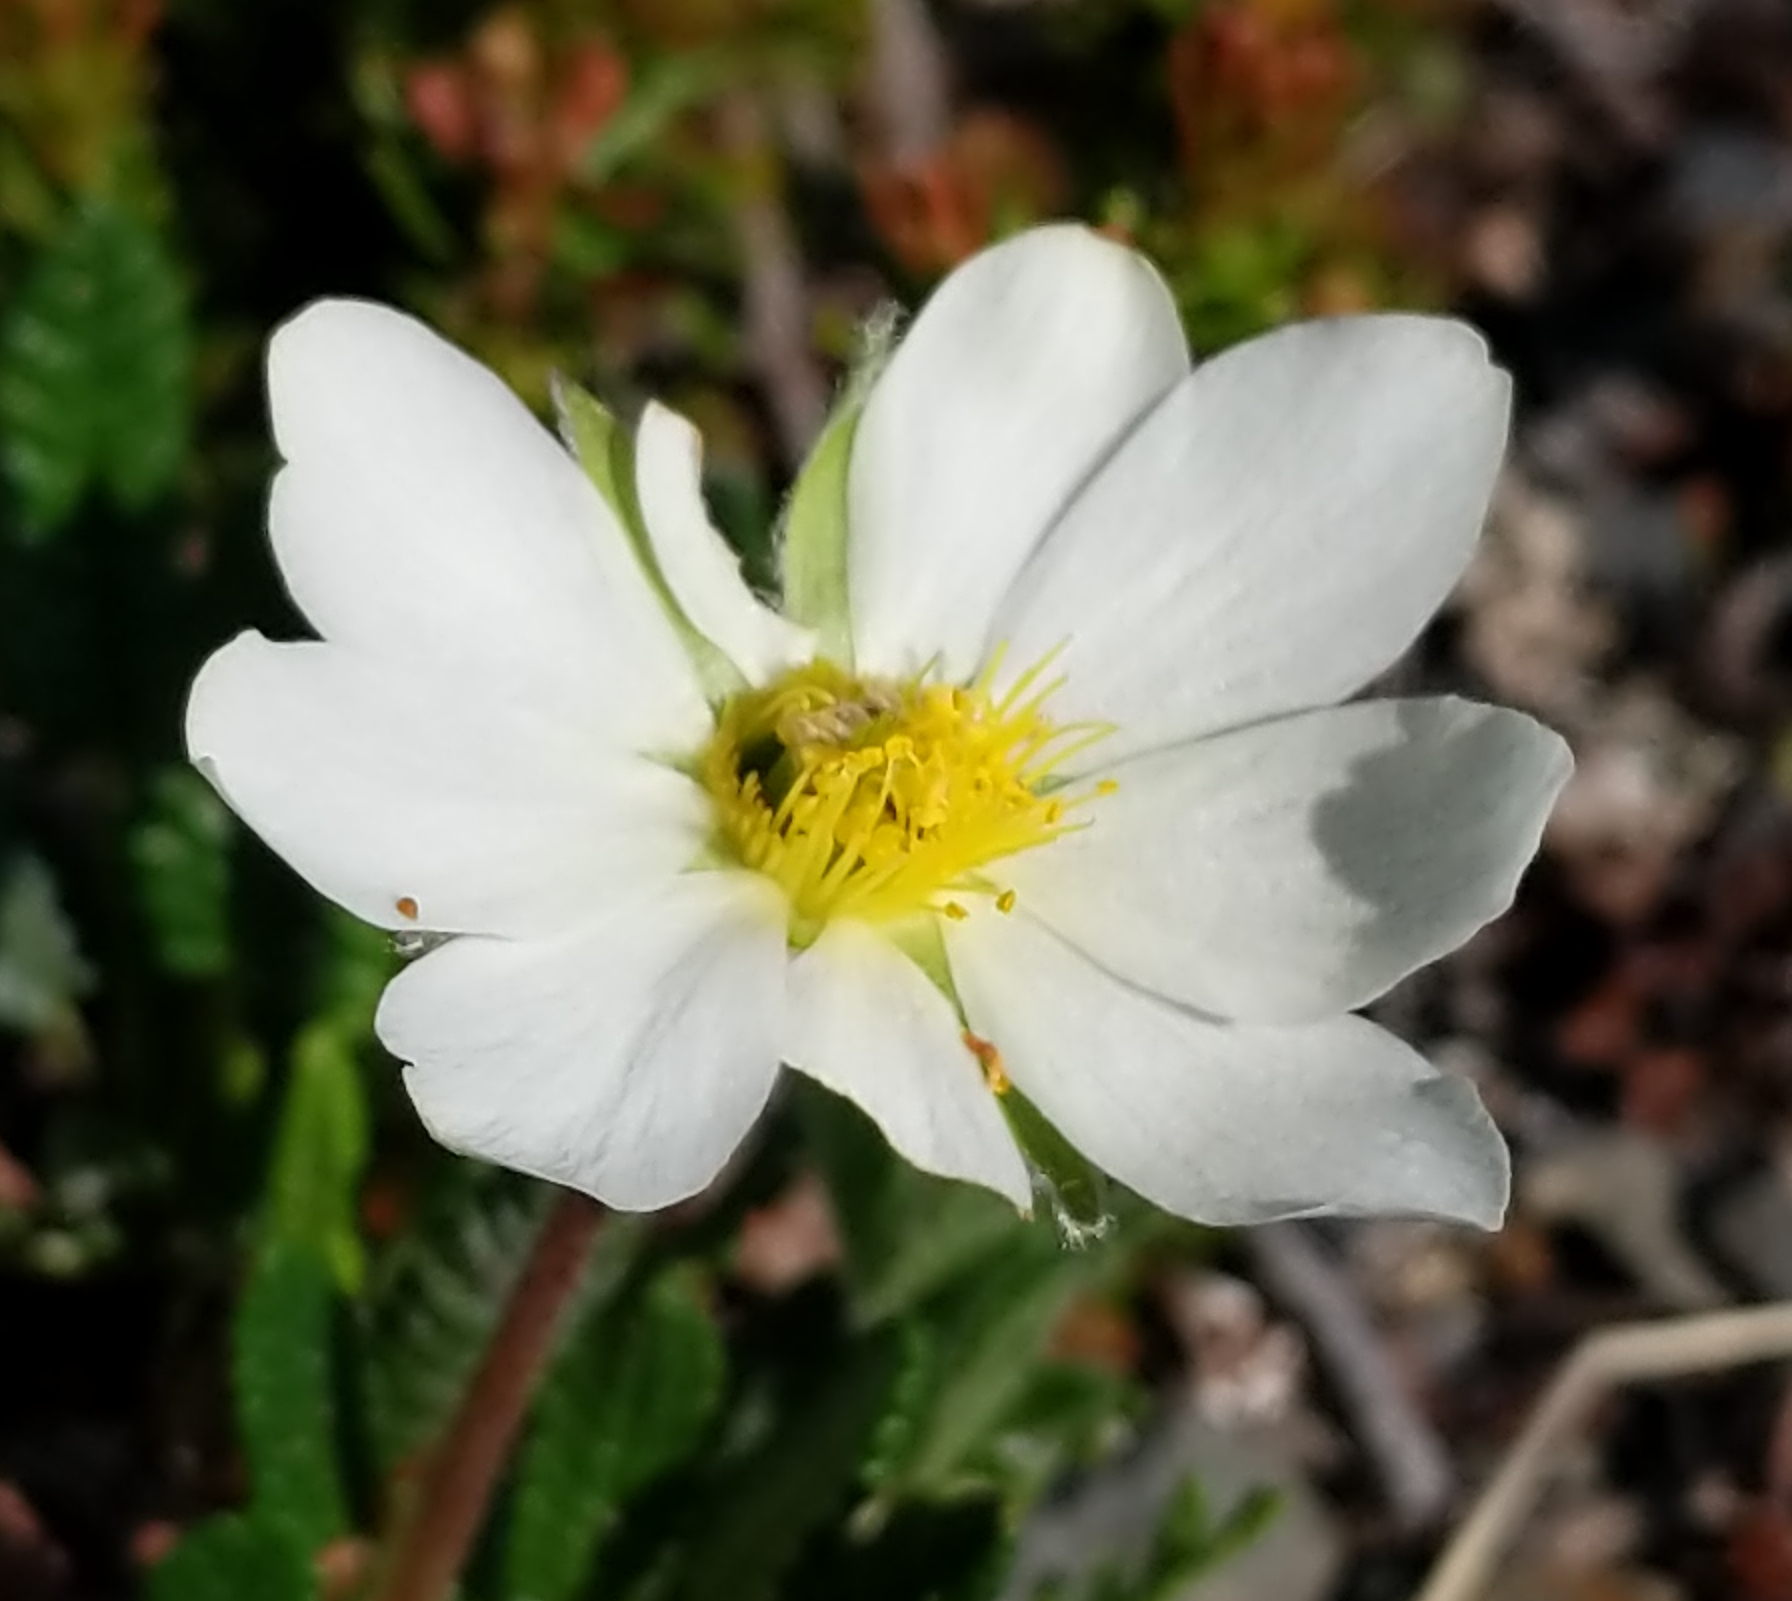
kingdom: Plantae
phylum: Tracheophyta
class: Magnoliopsida
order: Rosales
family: Rosaceae
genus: Dryas
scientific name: Dryas octopetala
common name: Eight-petal mountain-avens
